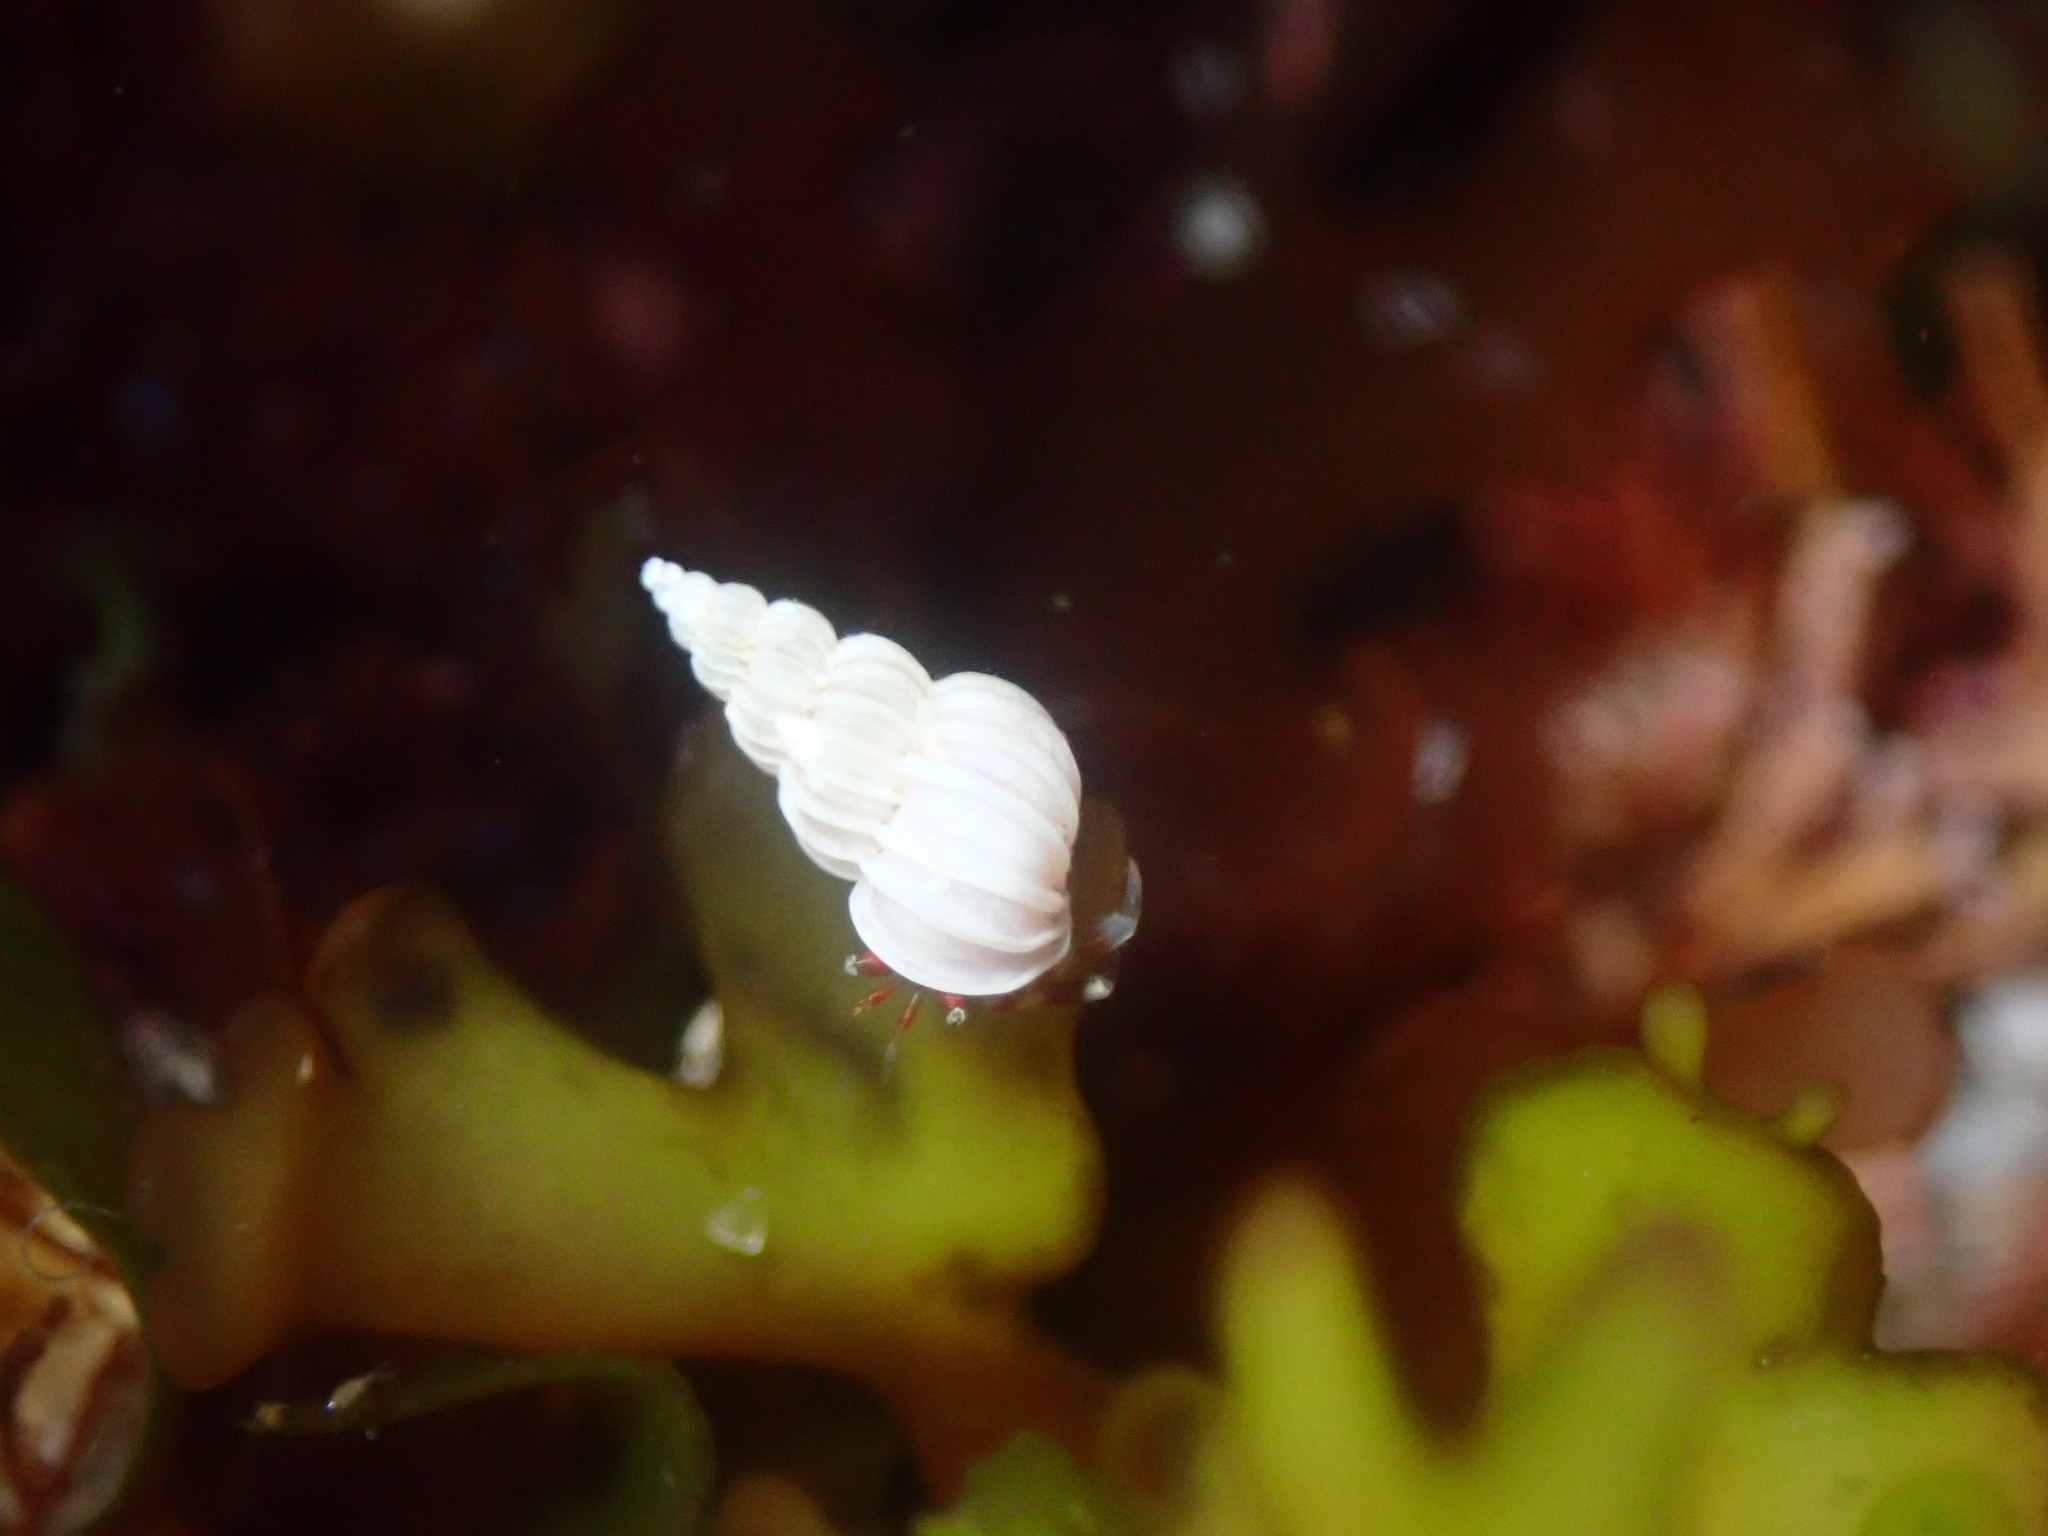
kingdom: Animalia
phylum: Mollusca
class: Gastropoda
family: Epitoniidae
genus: Epitonium
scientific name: Epitonium tinctum
